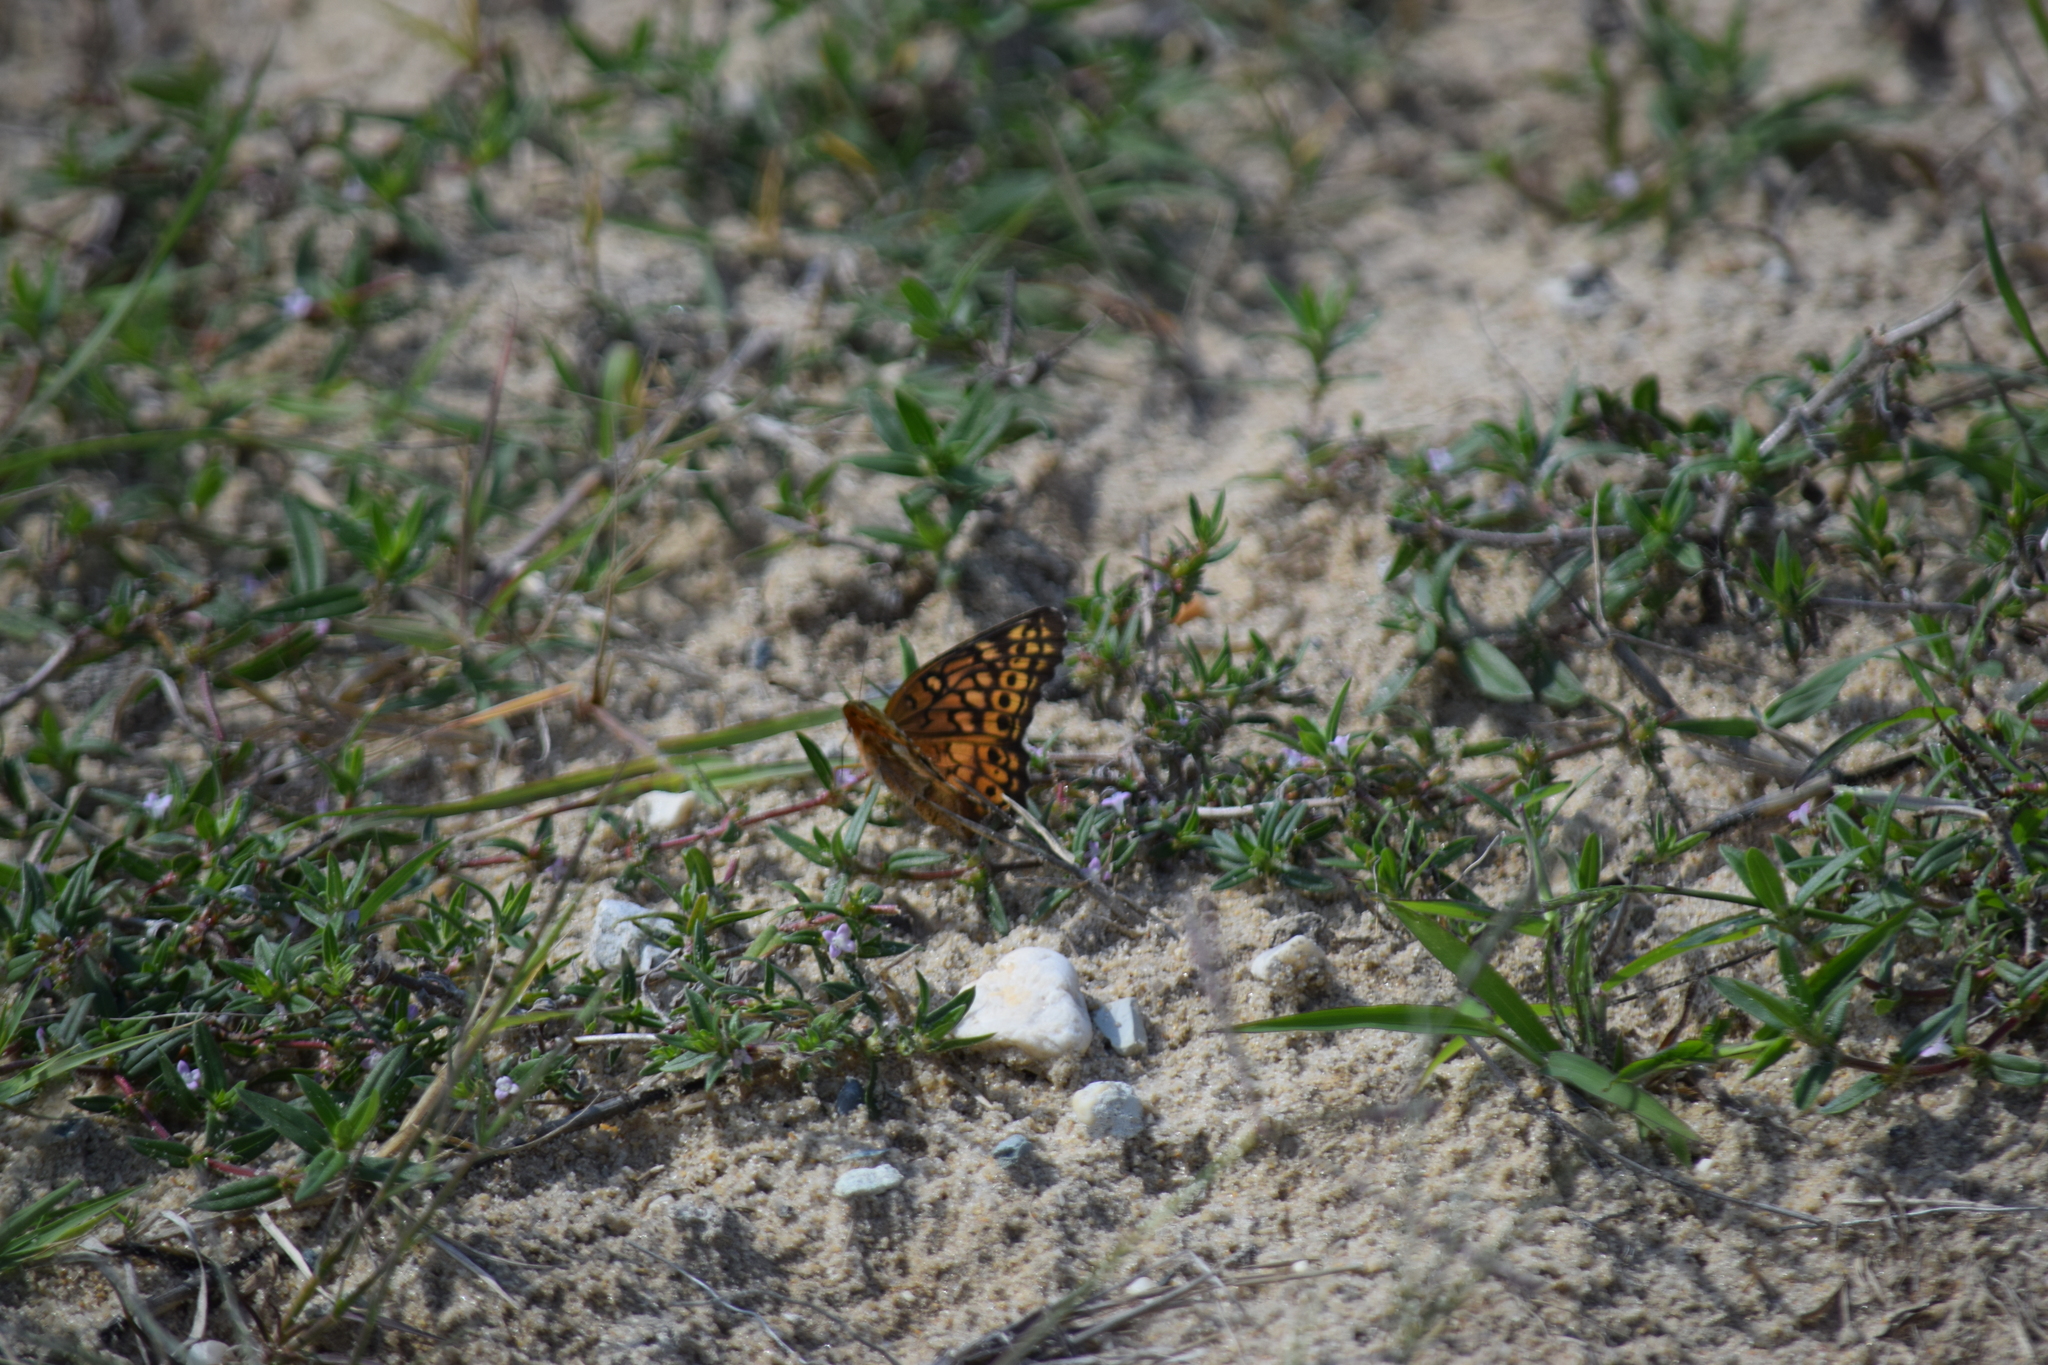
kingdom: Animalia
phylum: Arthropoda
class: Insecta
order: Lepidoptera
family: Nymphalidae
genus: Euptoieta
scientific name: Euptoieta claudia
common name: Variegated fritillary
